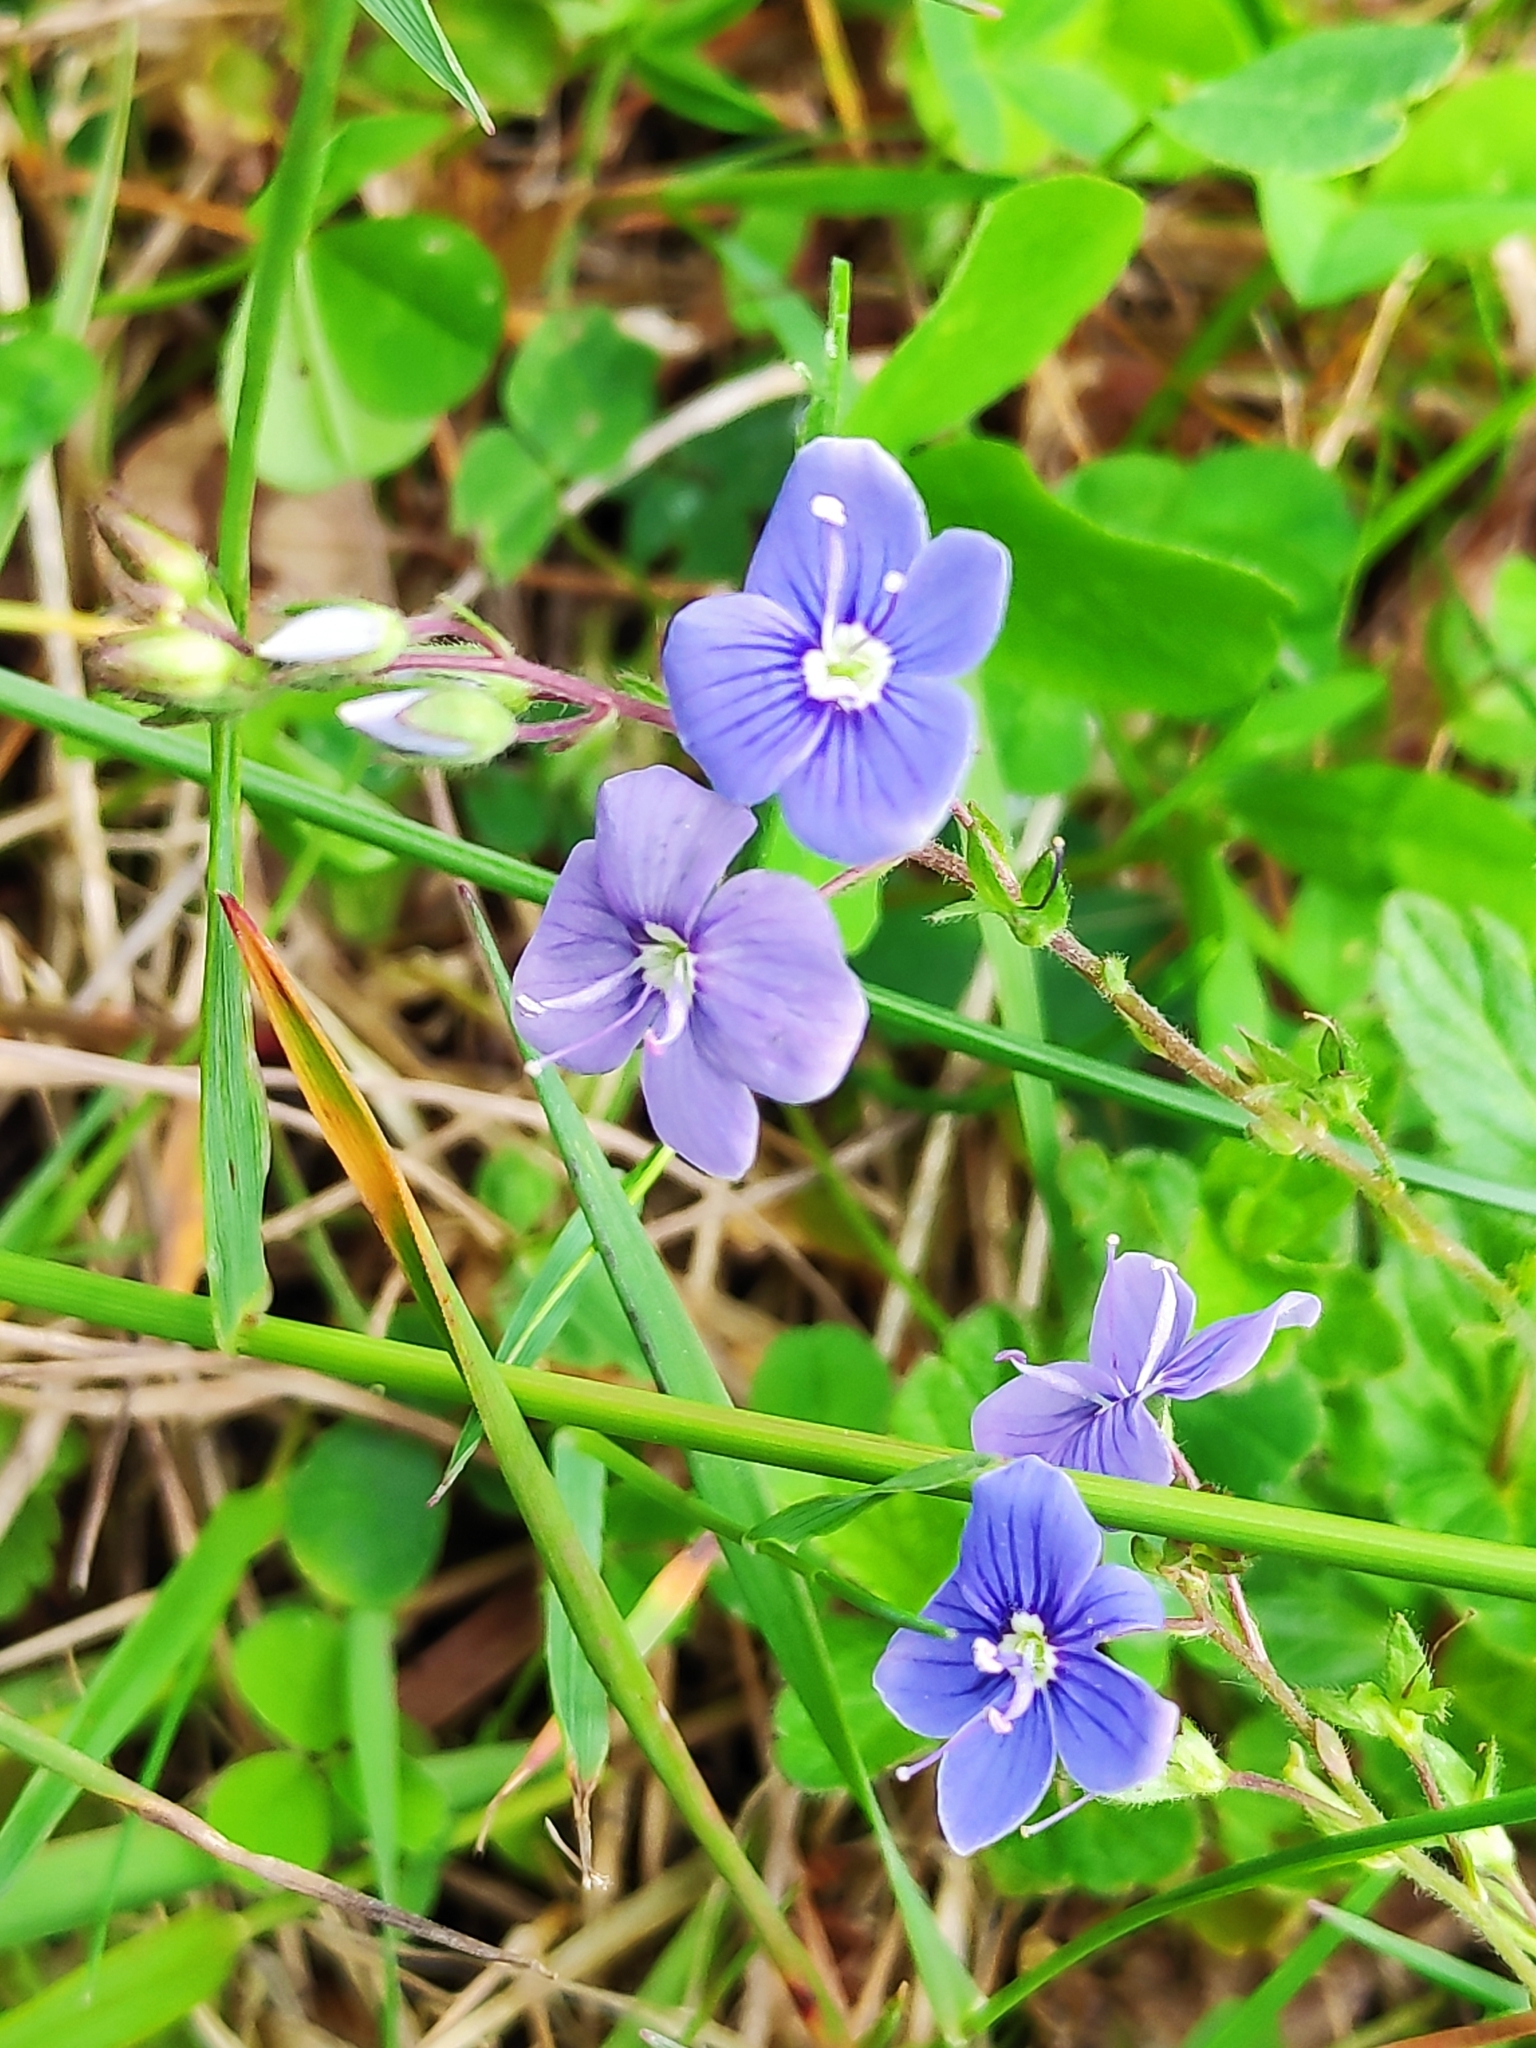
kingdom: Plantae
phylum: Tracheophyta
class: Magnoliopsida
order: Lamiales
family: Plantaginaceae
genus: Veronica
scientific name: Veronica chamaedrys
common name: Germander speedwell
